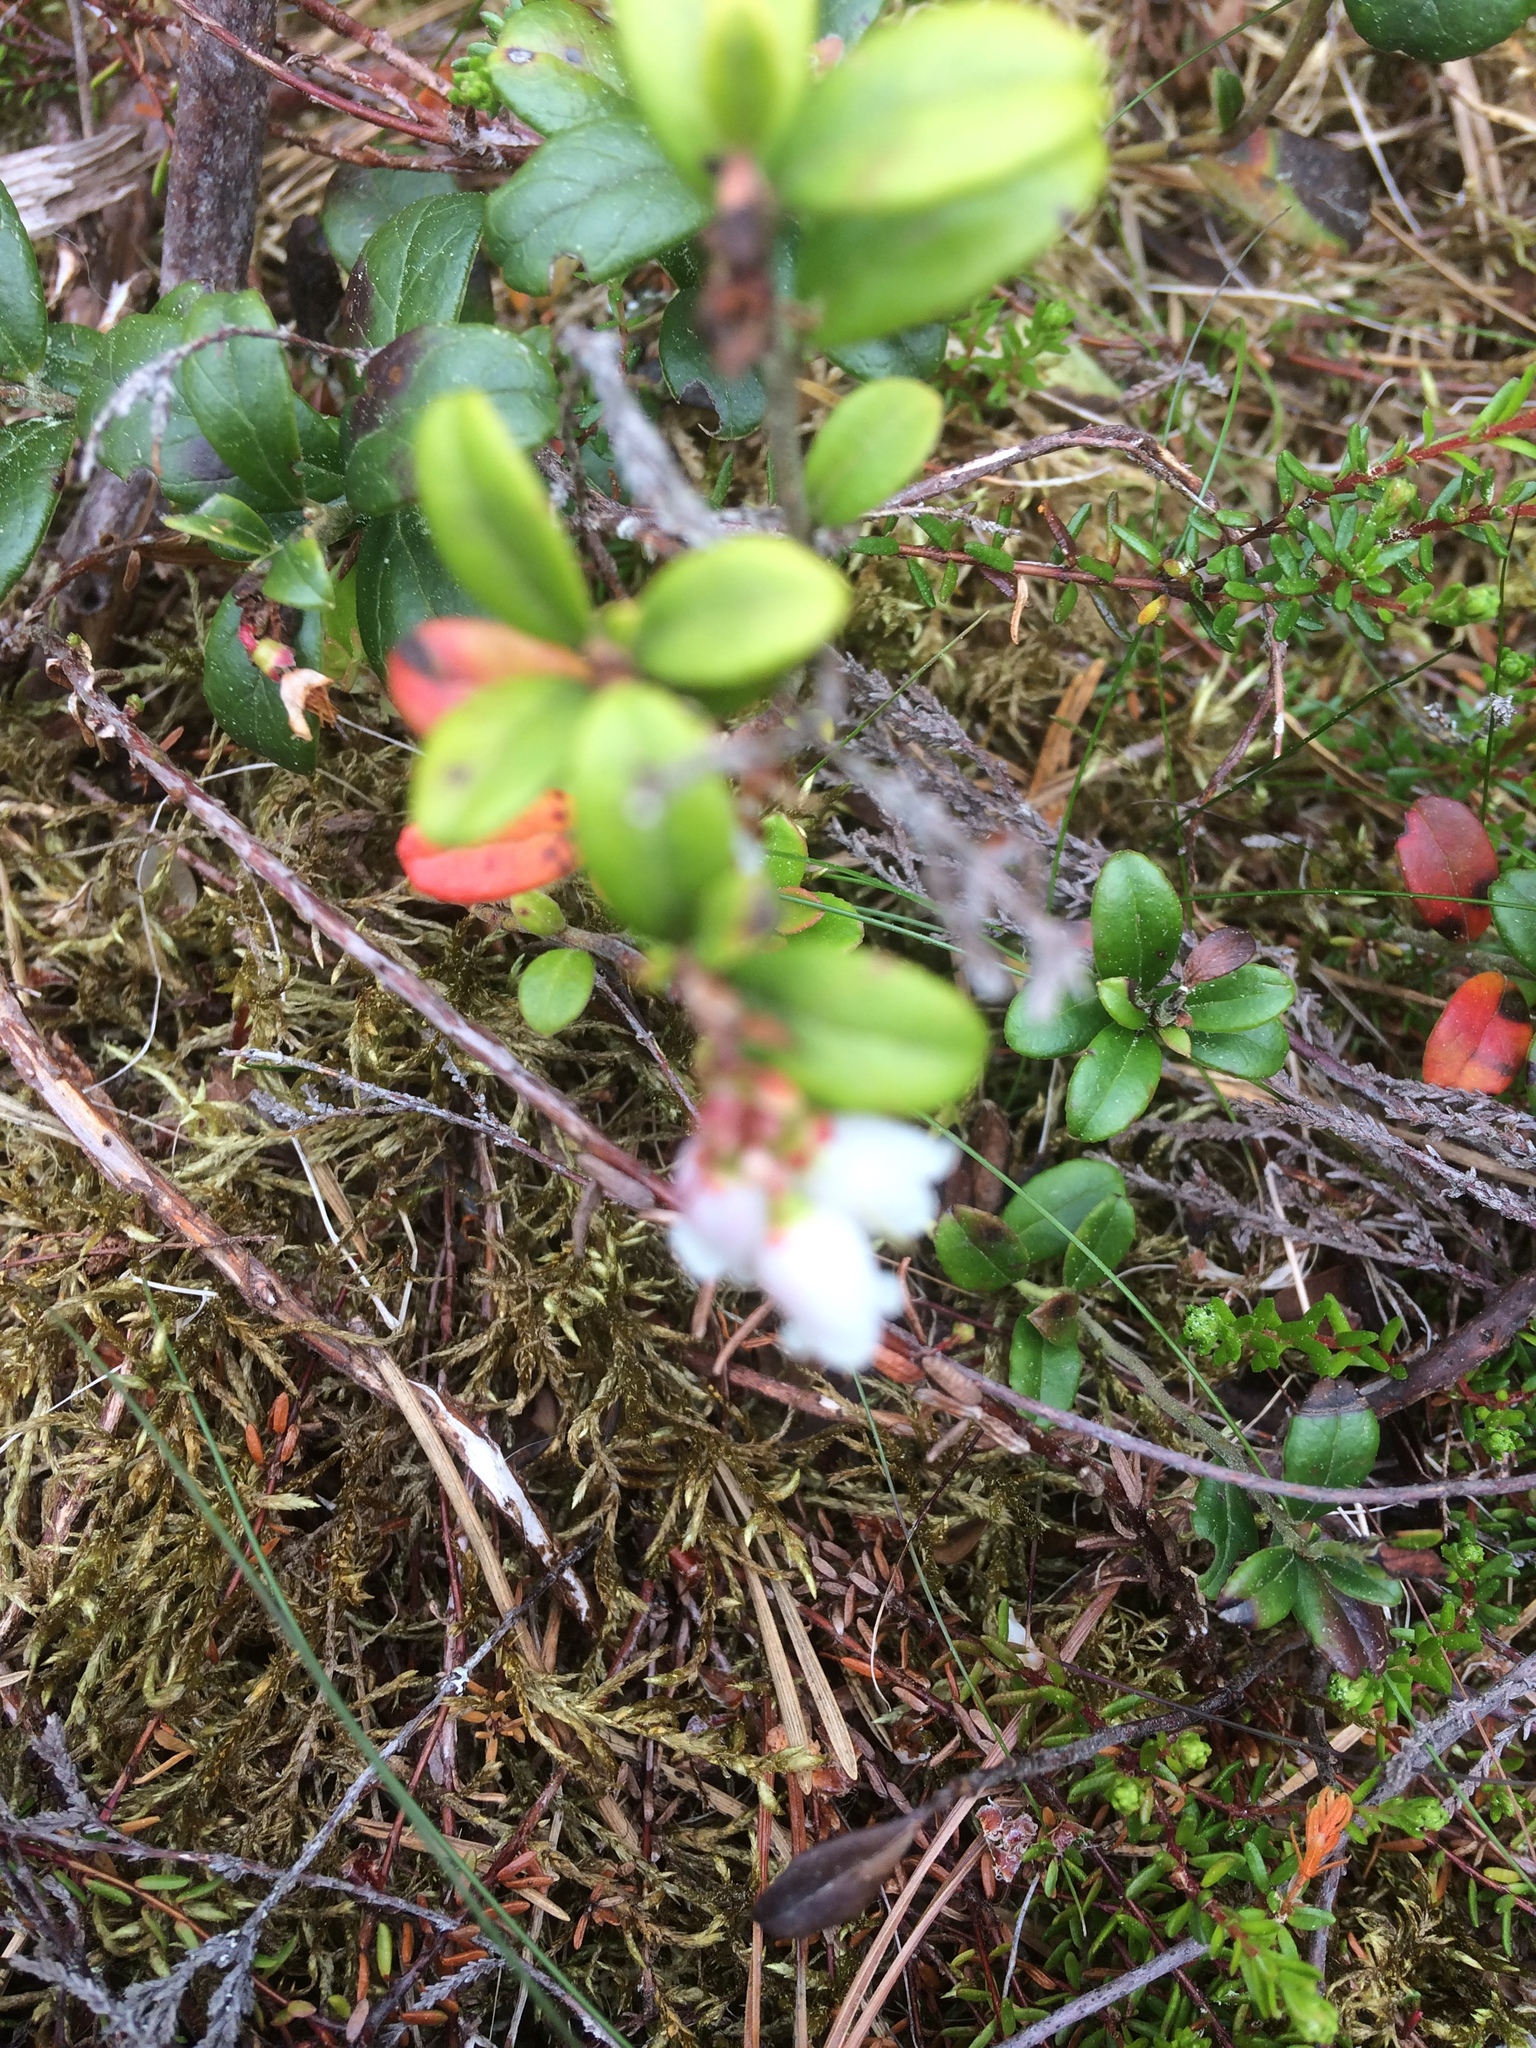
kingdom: Plantae
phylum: Tracheophyta
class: Magnoliopsida
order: Ericales
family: Ericaceae
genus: Vaccinium
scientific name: Vaccinium vitis-idaea
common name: Cowberry
